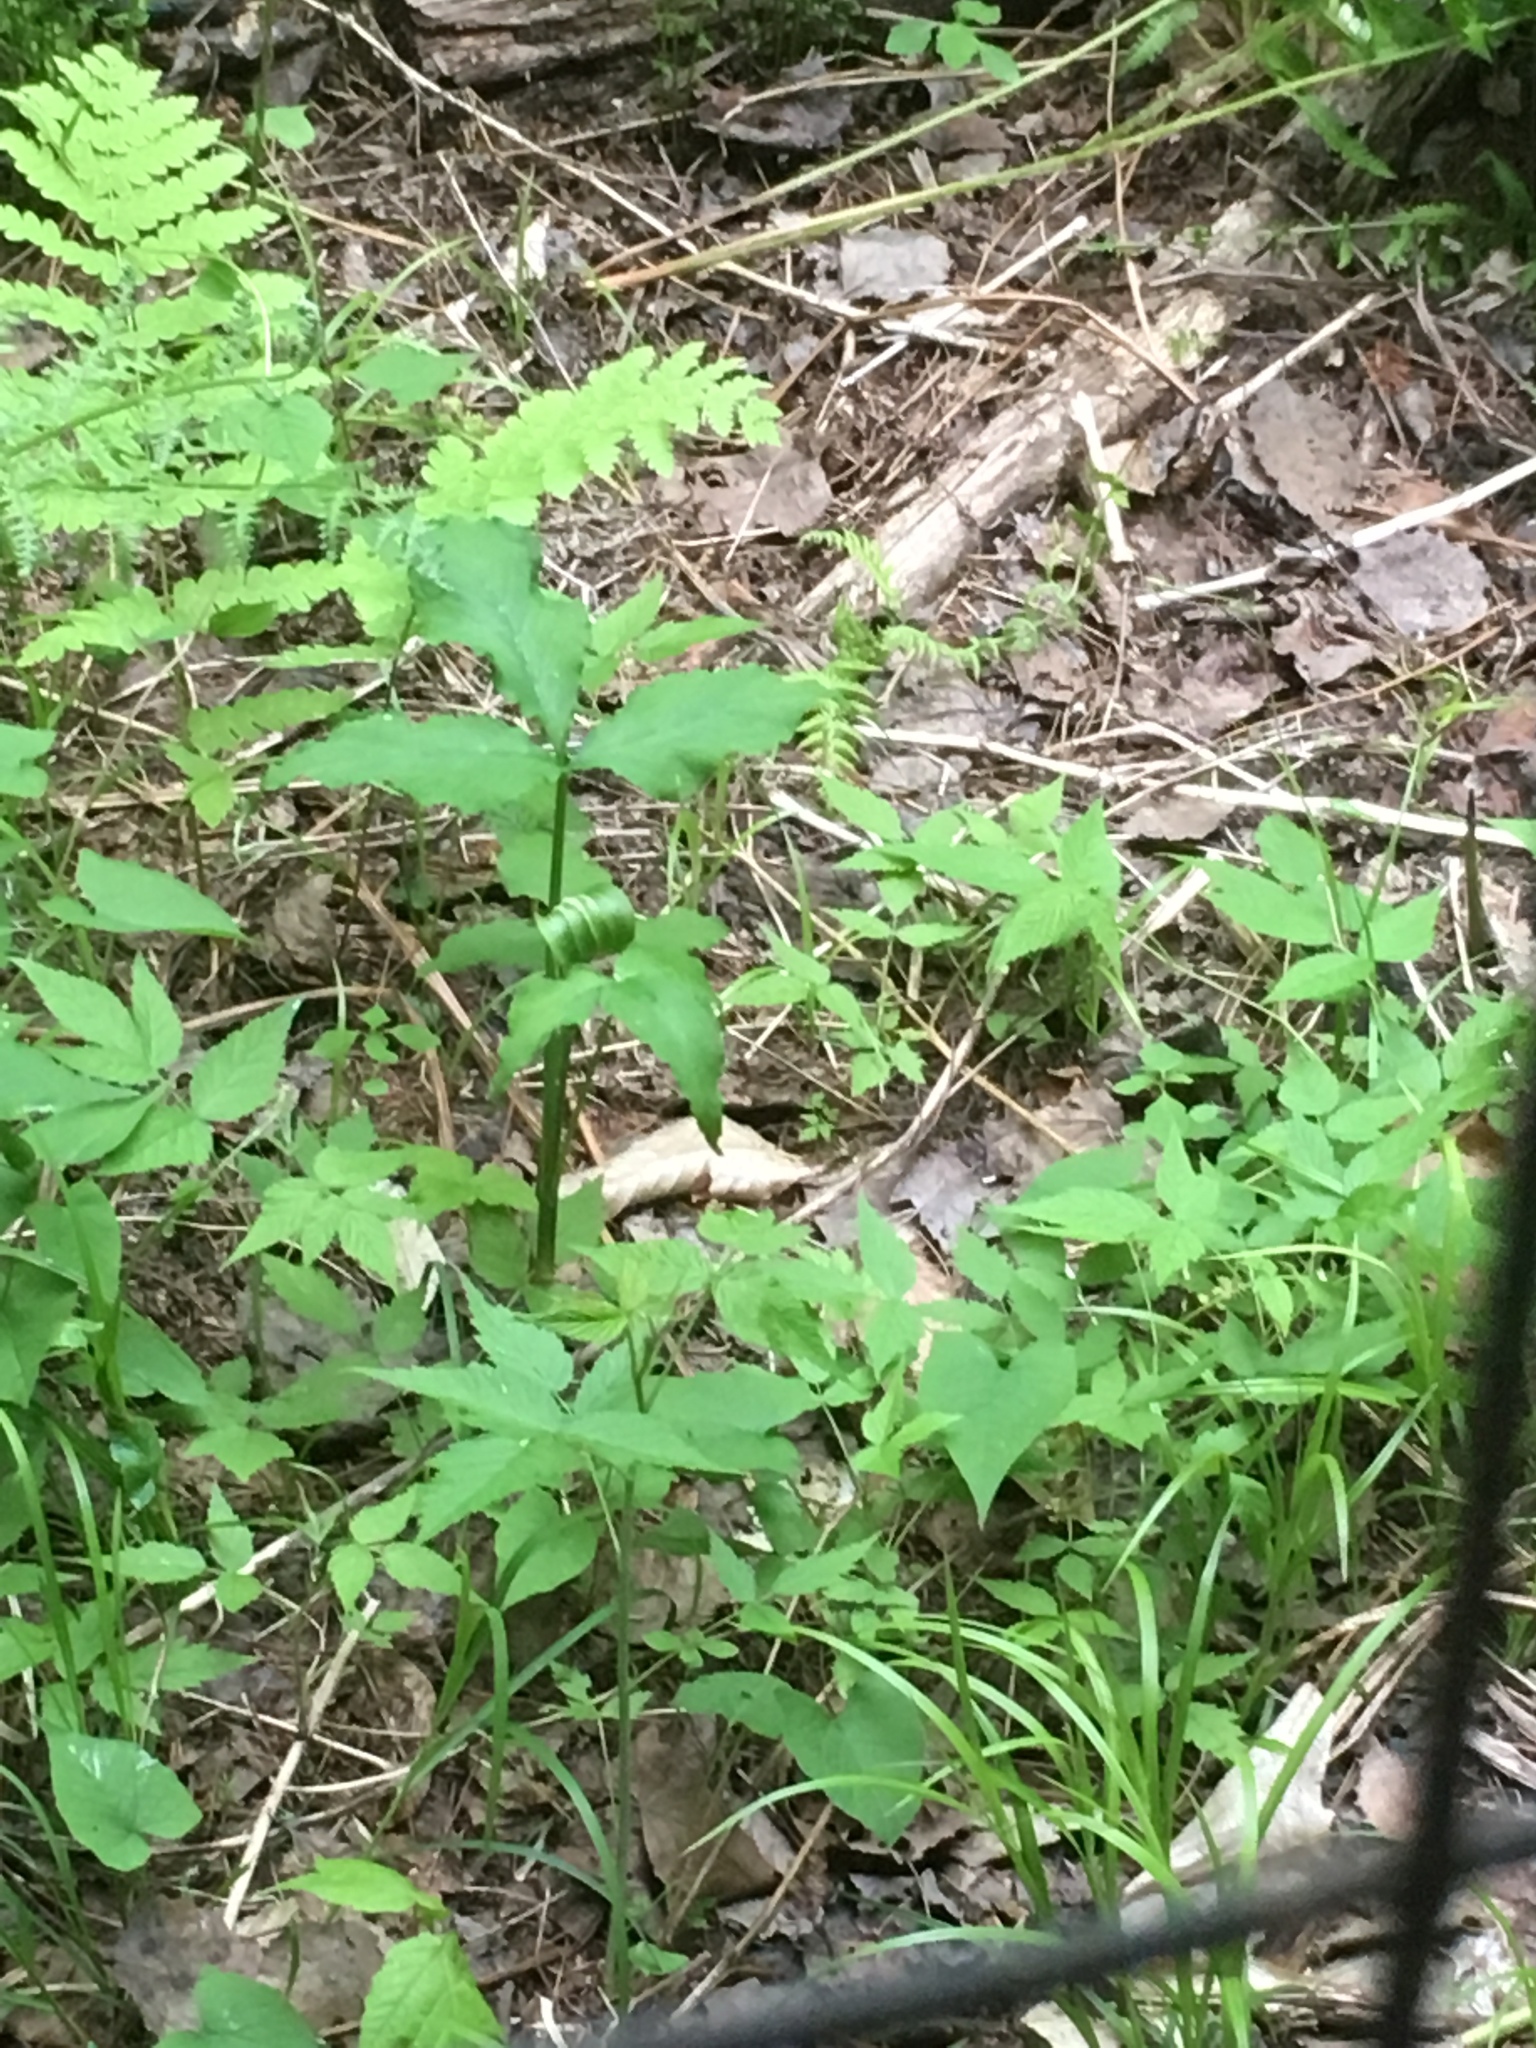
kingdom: Plantae
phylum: Tracheophyta
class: Liliopsida
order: Alismatales
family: Araceae
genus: Arisaema
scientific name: Arisaema stewardsonii
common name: Swamp jack-in-the-pulpit
